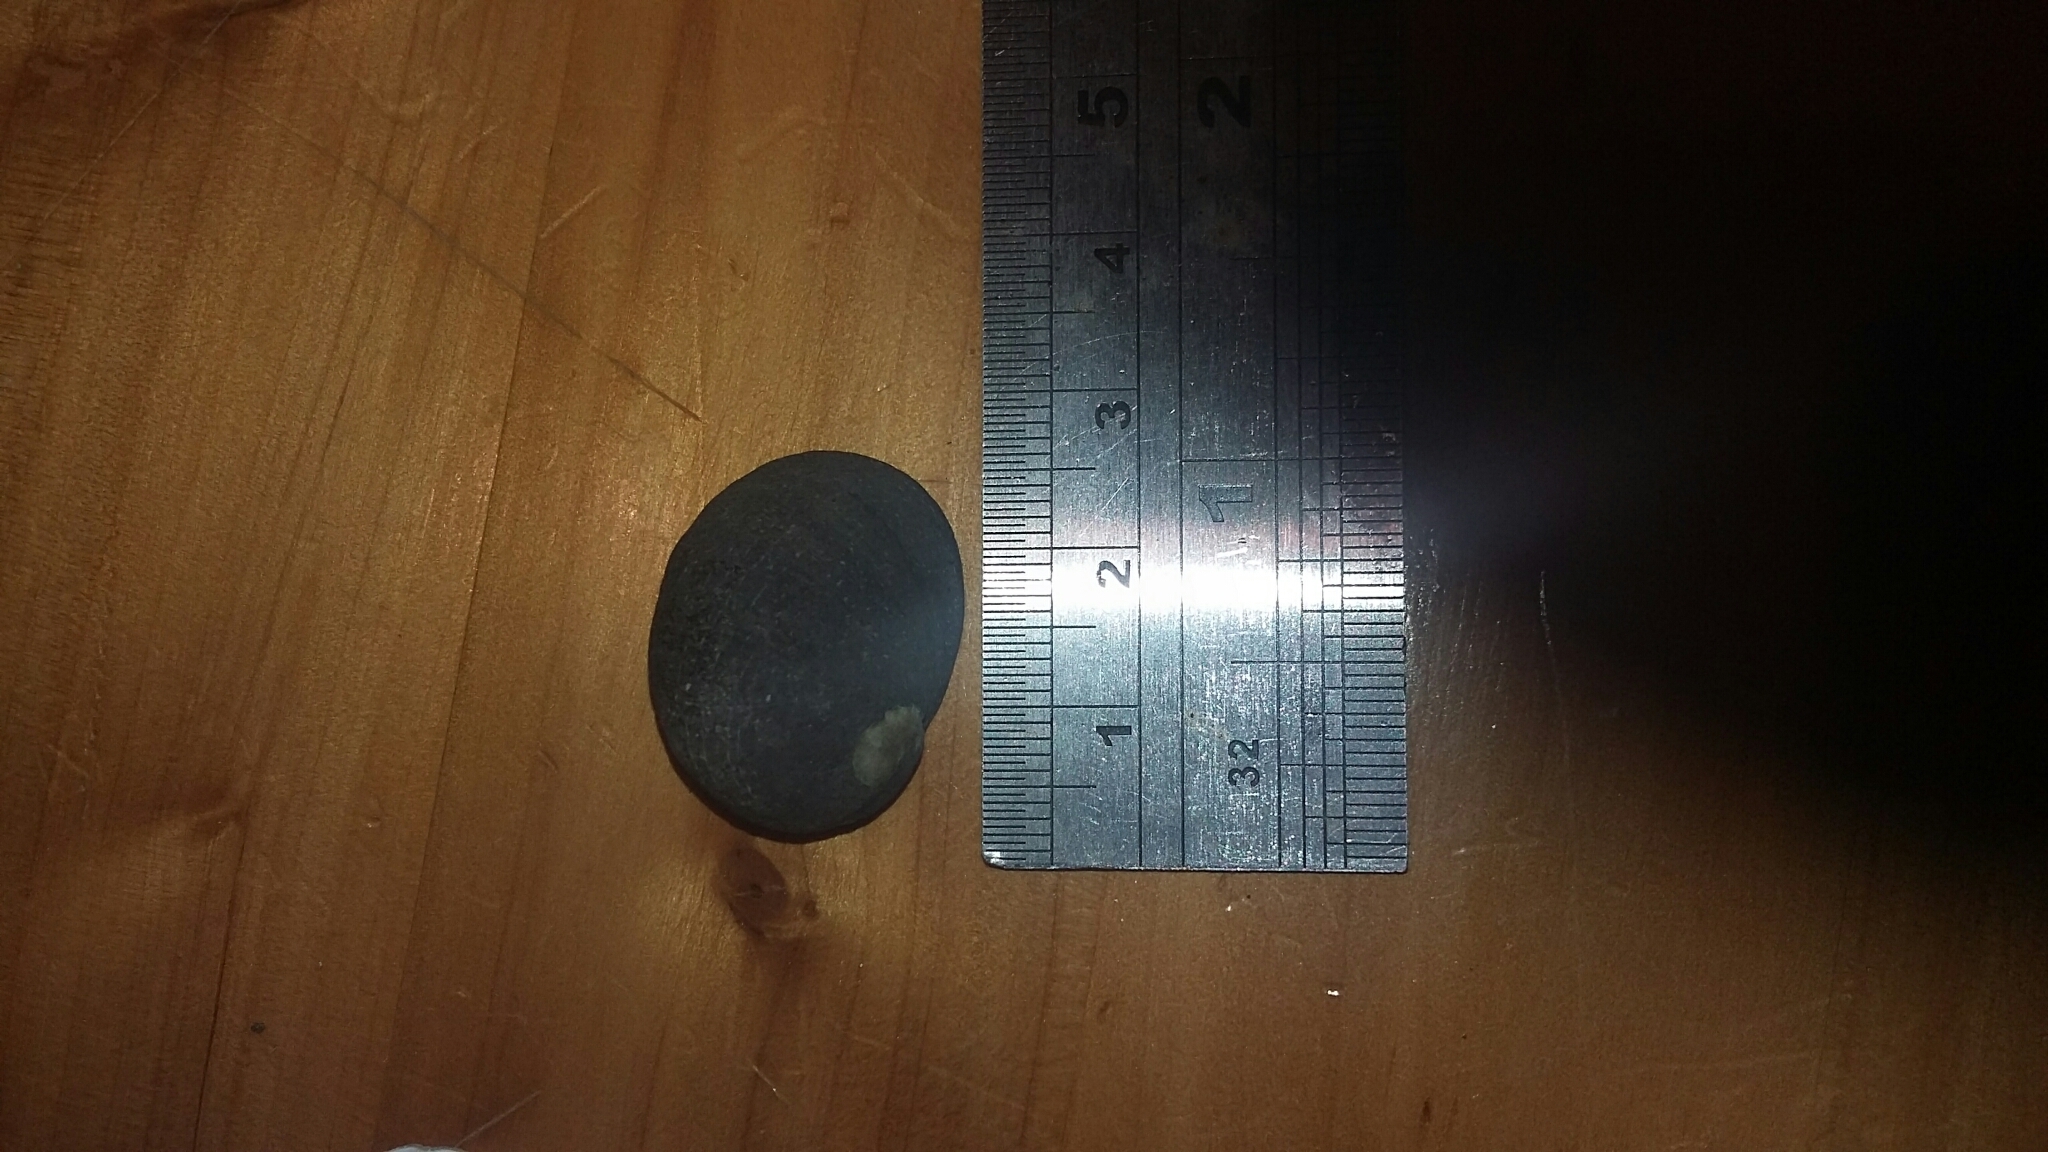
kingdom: Animalia
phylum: Mollusca
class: Gastropoda
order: Cycloneritida
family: Neritidae
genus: Nerita
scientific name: Nerita melanotragus
